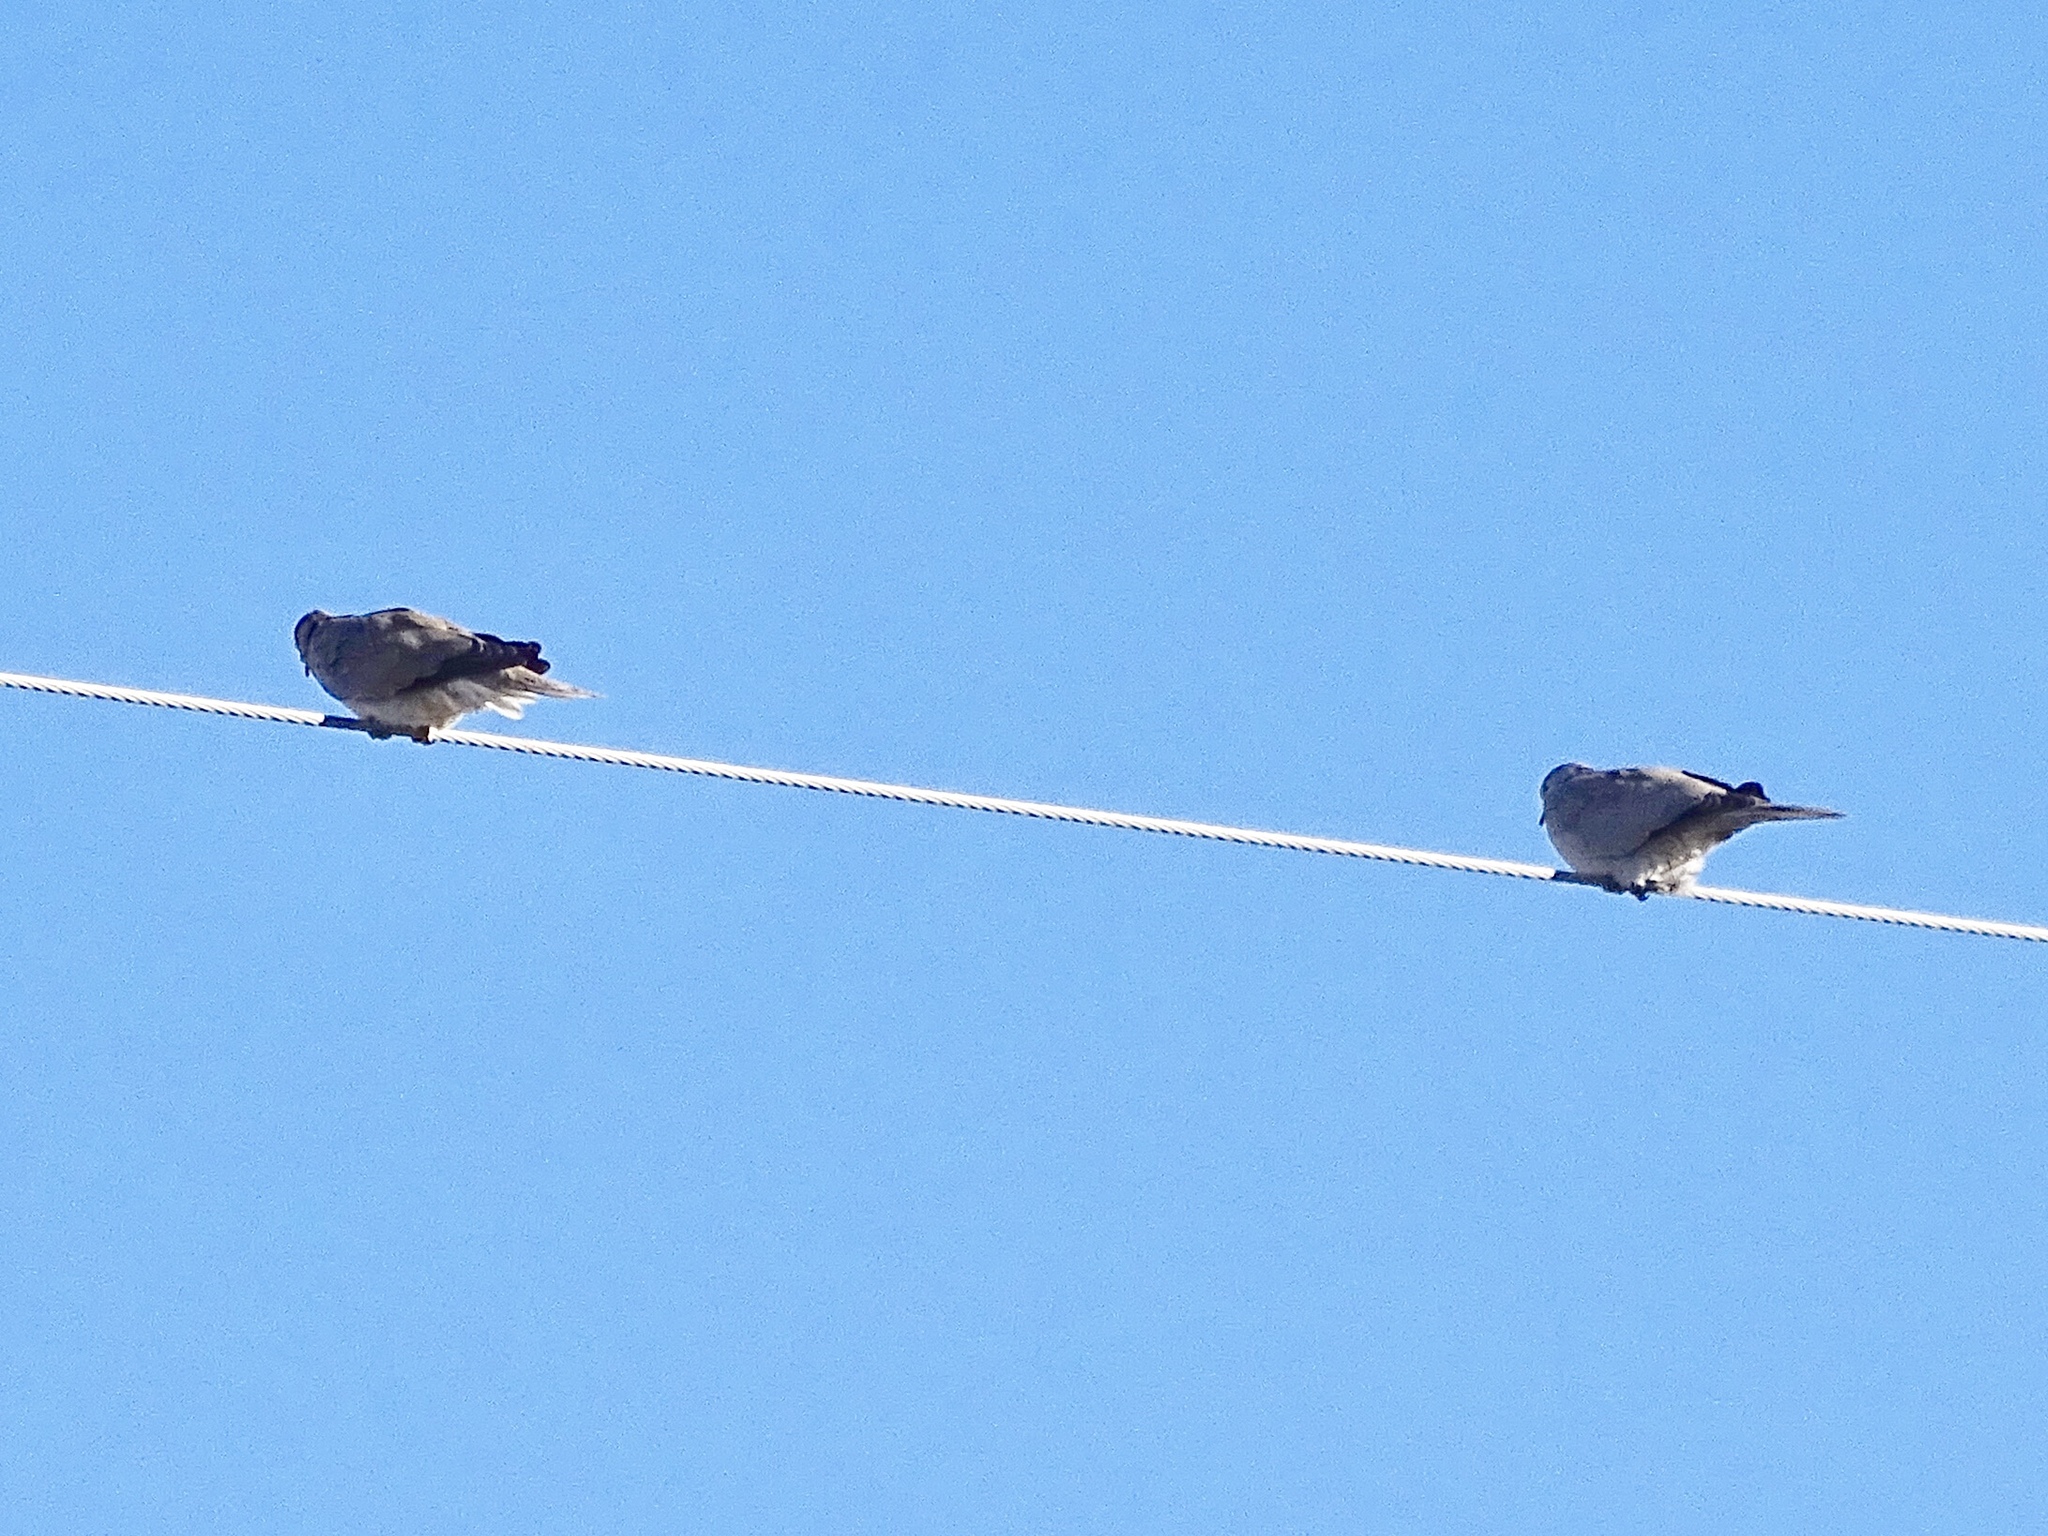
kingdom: Animalia
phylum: Chordata
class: Aves
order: Columbiformes
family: Columbidae
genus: Streptopelia
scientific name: Streptopelia decaocto
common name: Eurasian collared dove
